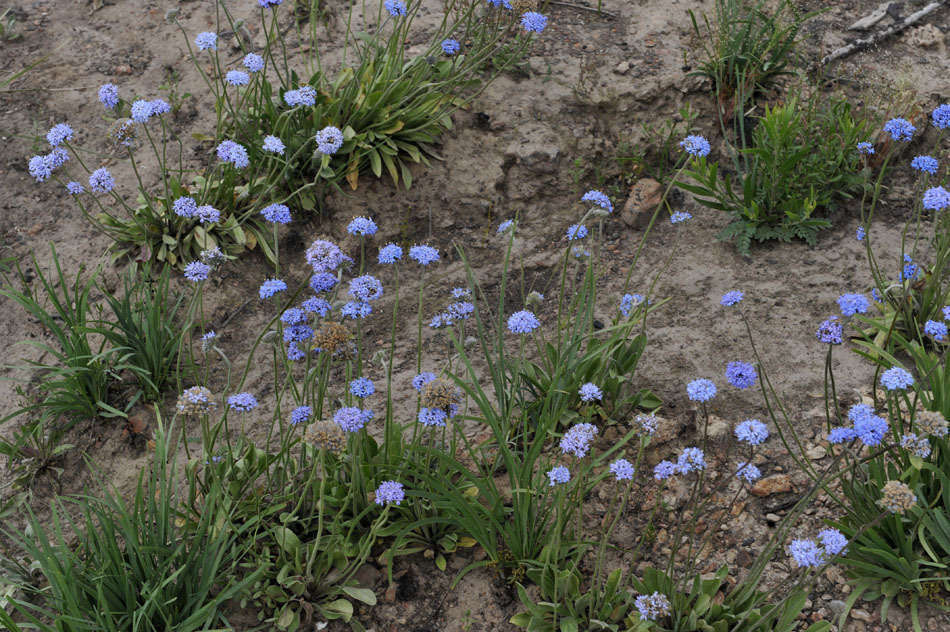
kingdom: Plantae
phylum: Tracheophyta
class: Magnoliopsida
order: Asterales
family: Goodeniaceae
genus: Brunonia
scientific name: Brunonia australis
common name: Blue pincushion
